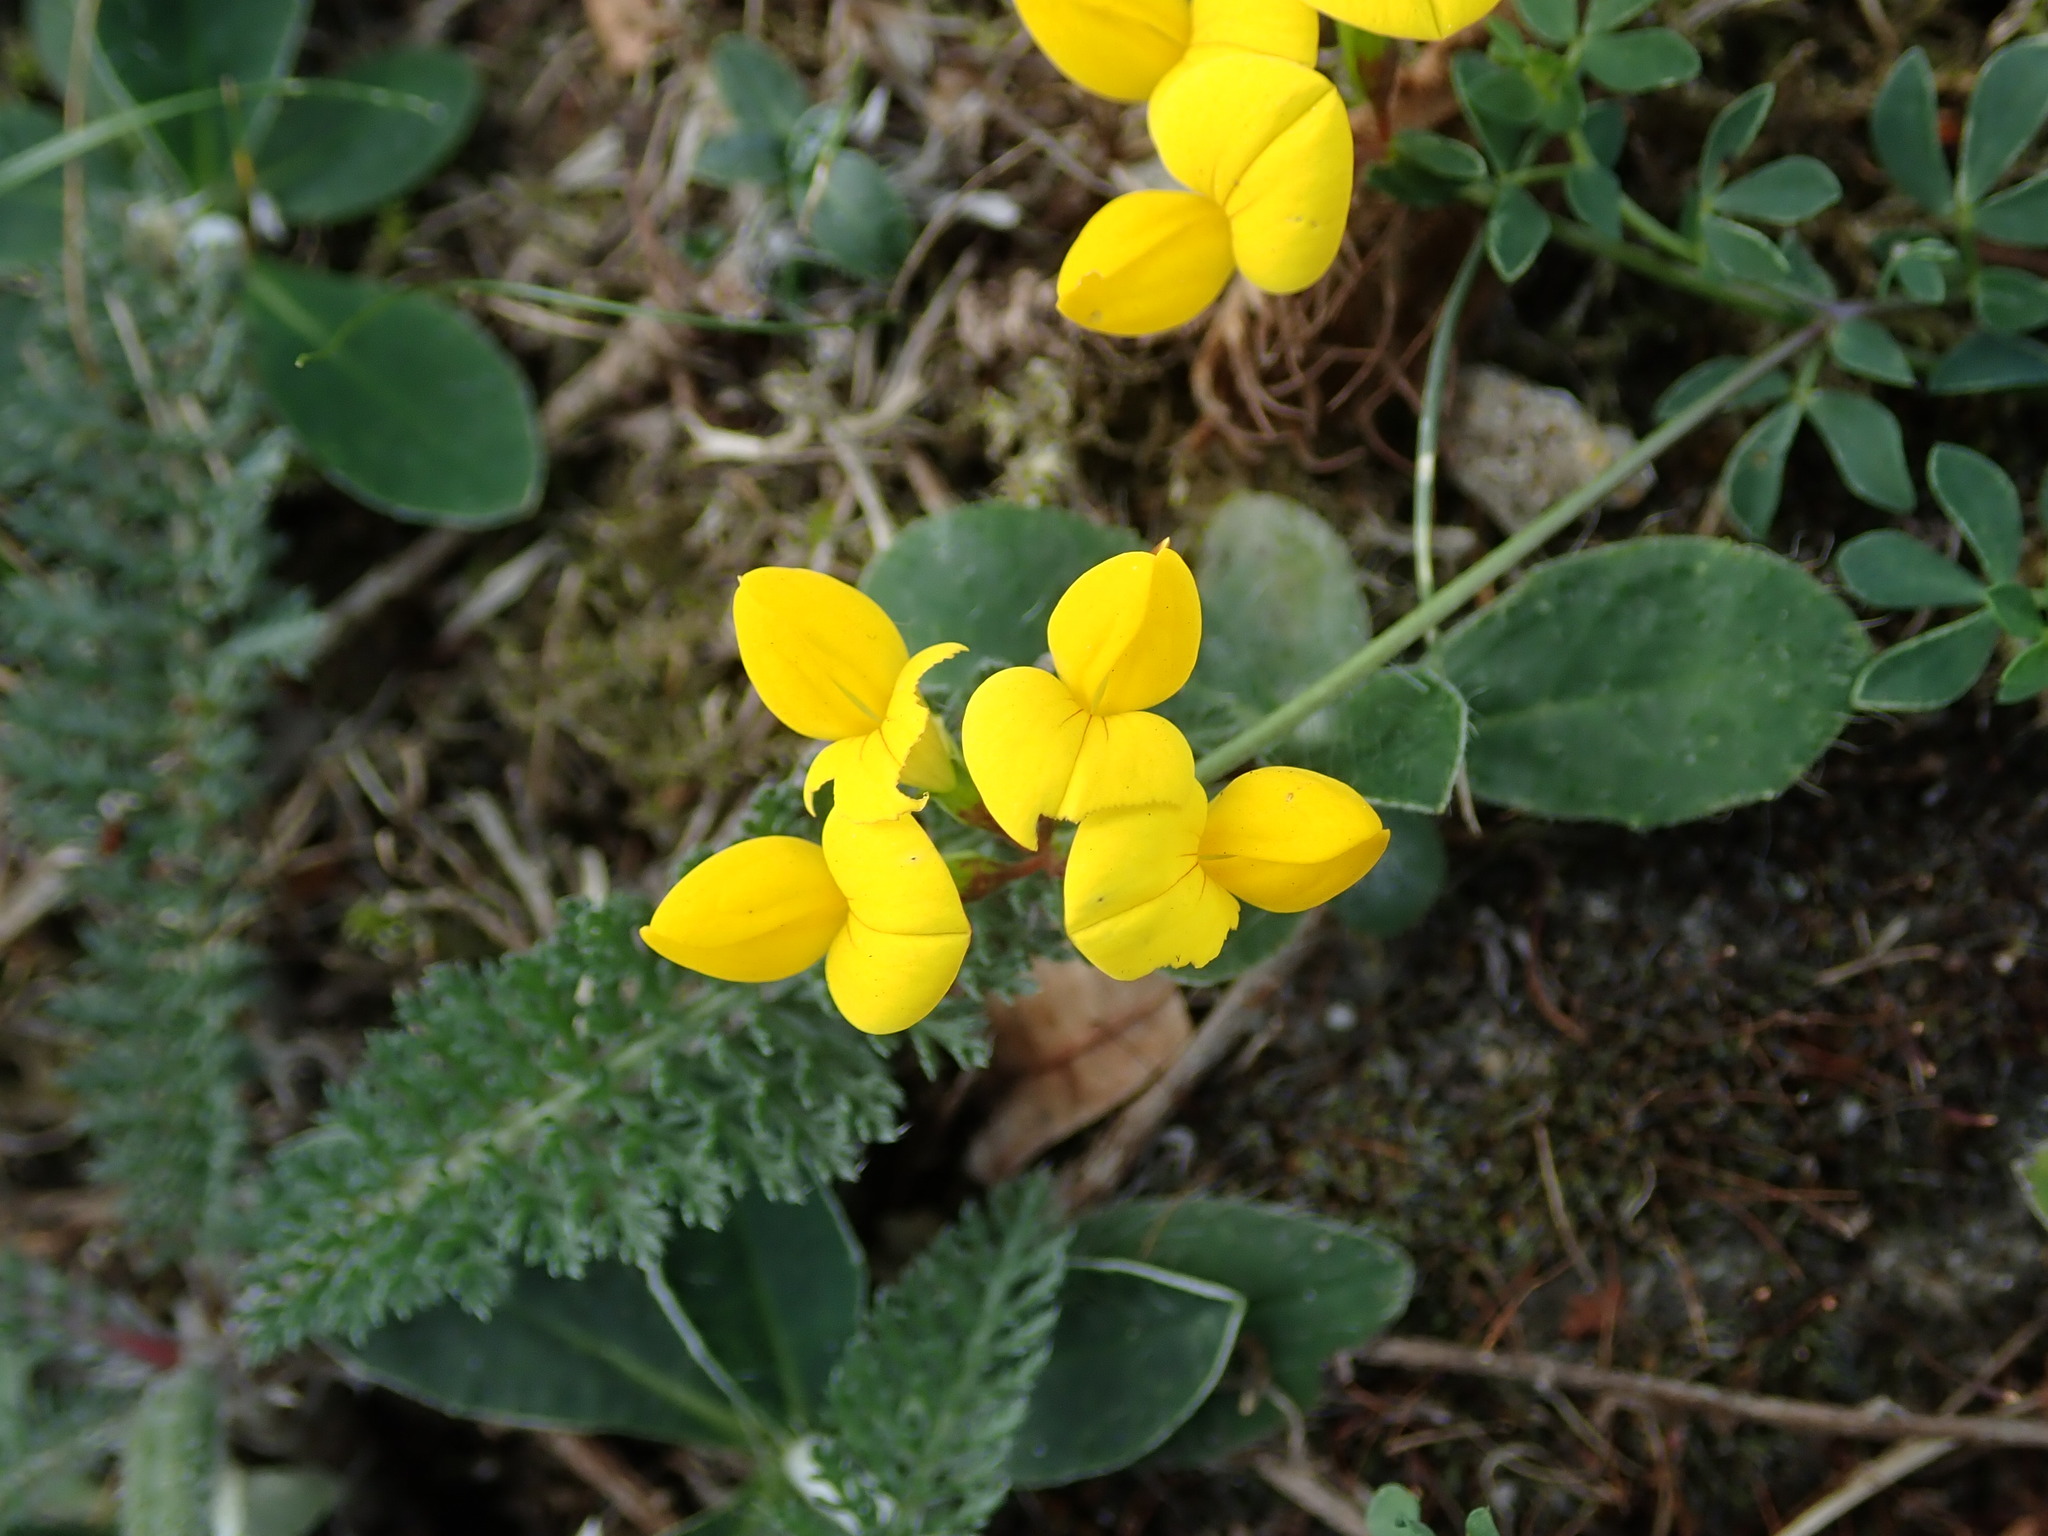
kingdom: Plantae
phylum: Tracheophyta
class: Magnoliopsida
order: Fabales
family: Fabaceae
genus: Lotus
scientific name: Lotus corniculatus
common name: Common bird's-foot-trefoil
